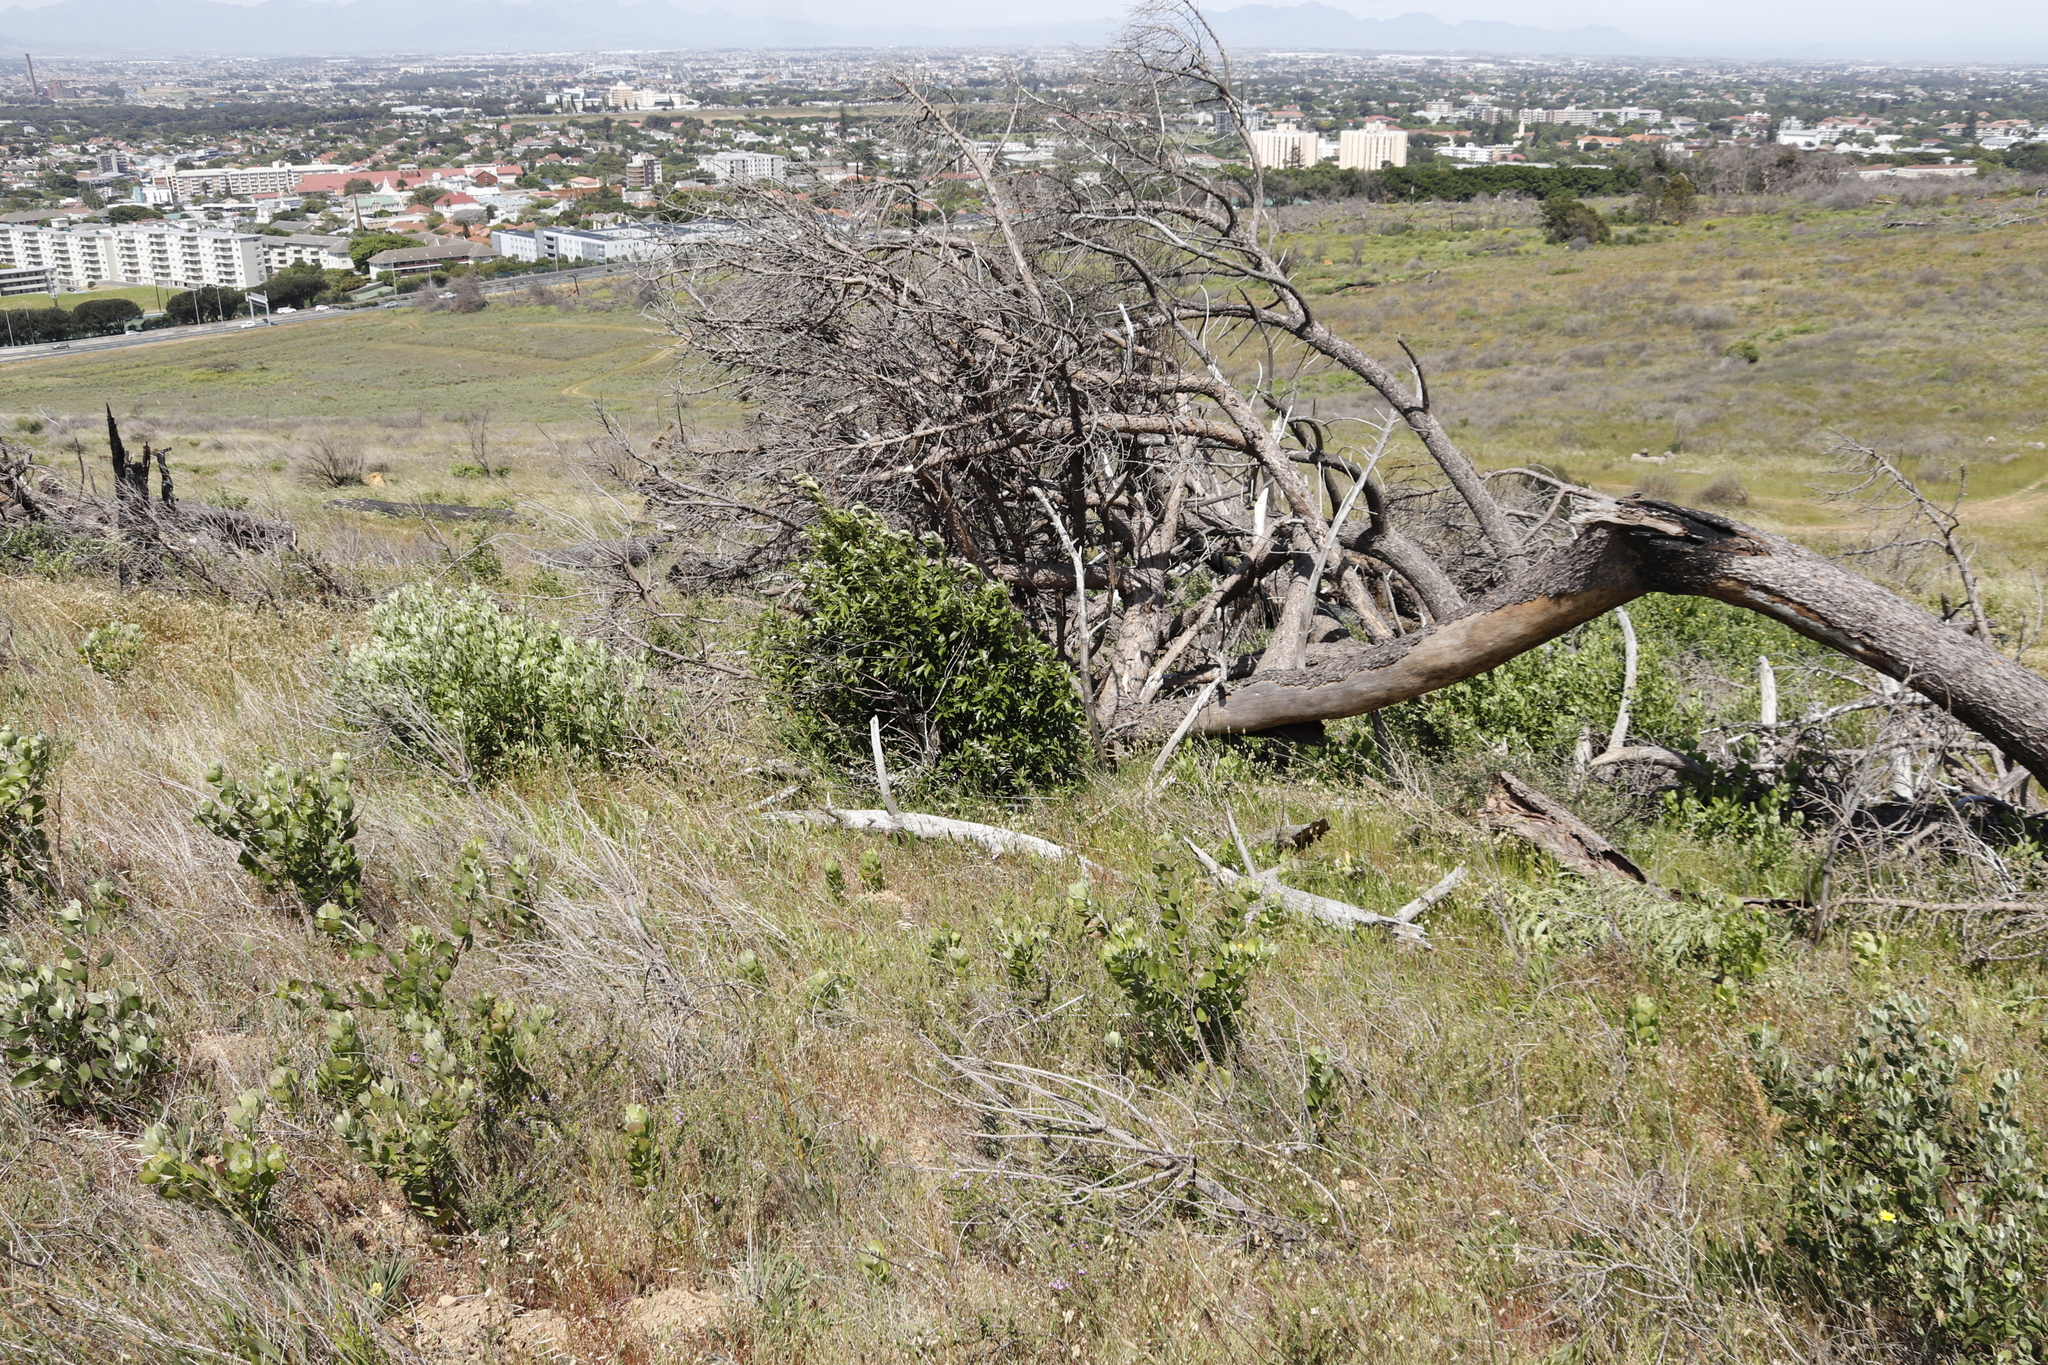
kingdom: Plantae
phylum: Tracheophyta
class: Magnoliopsida
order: Asterales
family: Asteraceae
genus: Osteospermum
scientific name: Osteospermum moniliferum
